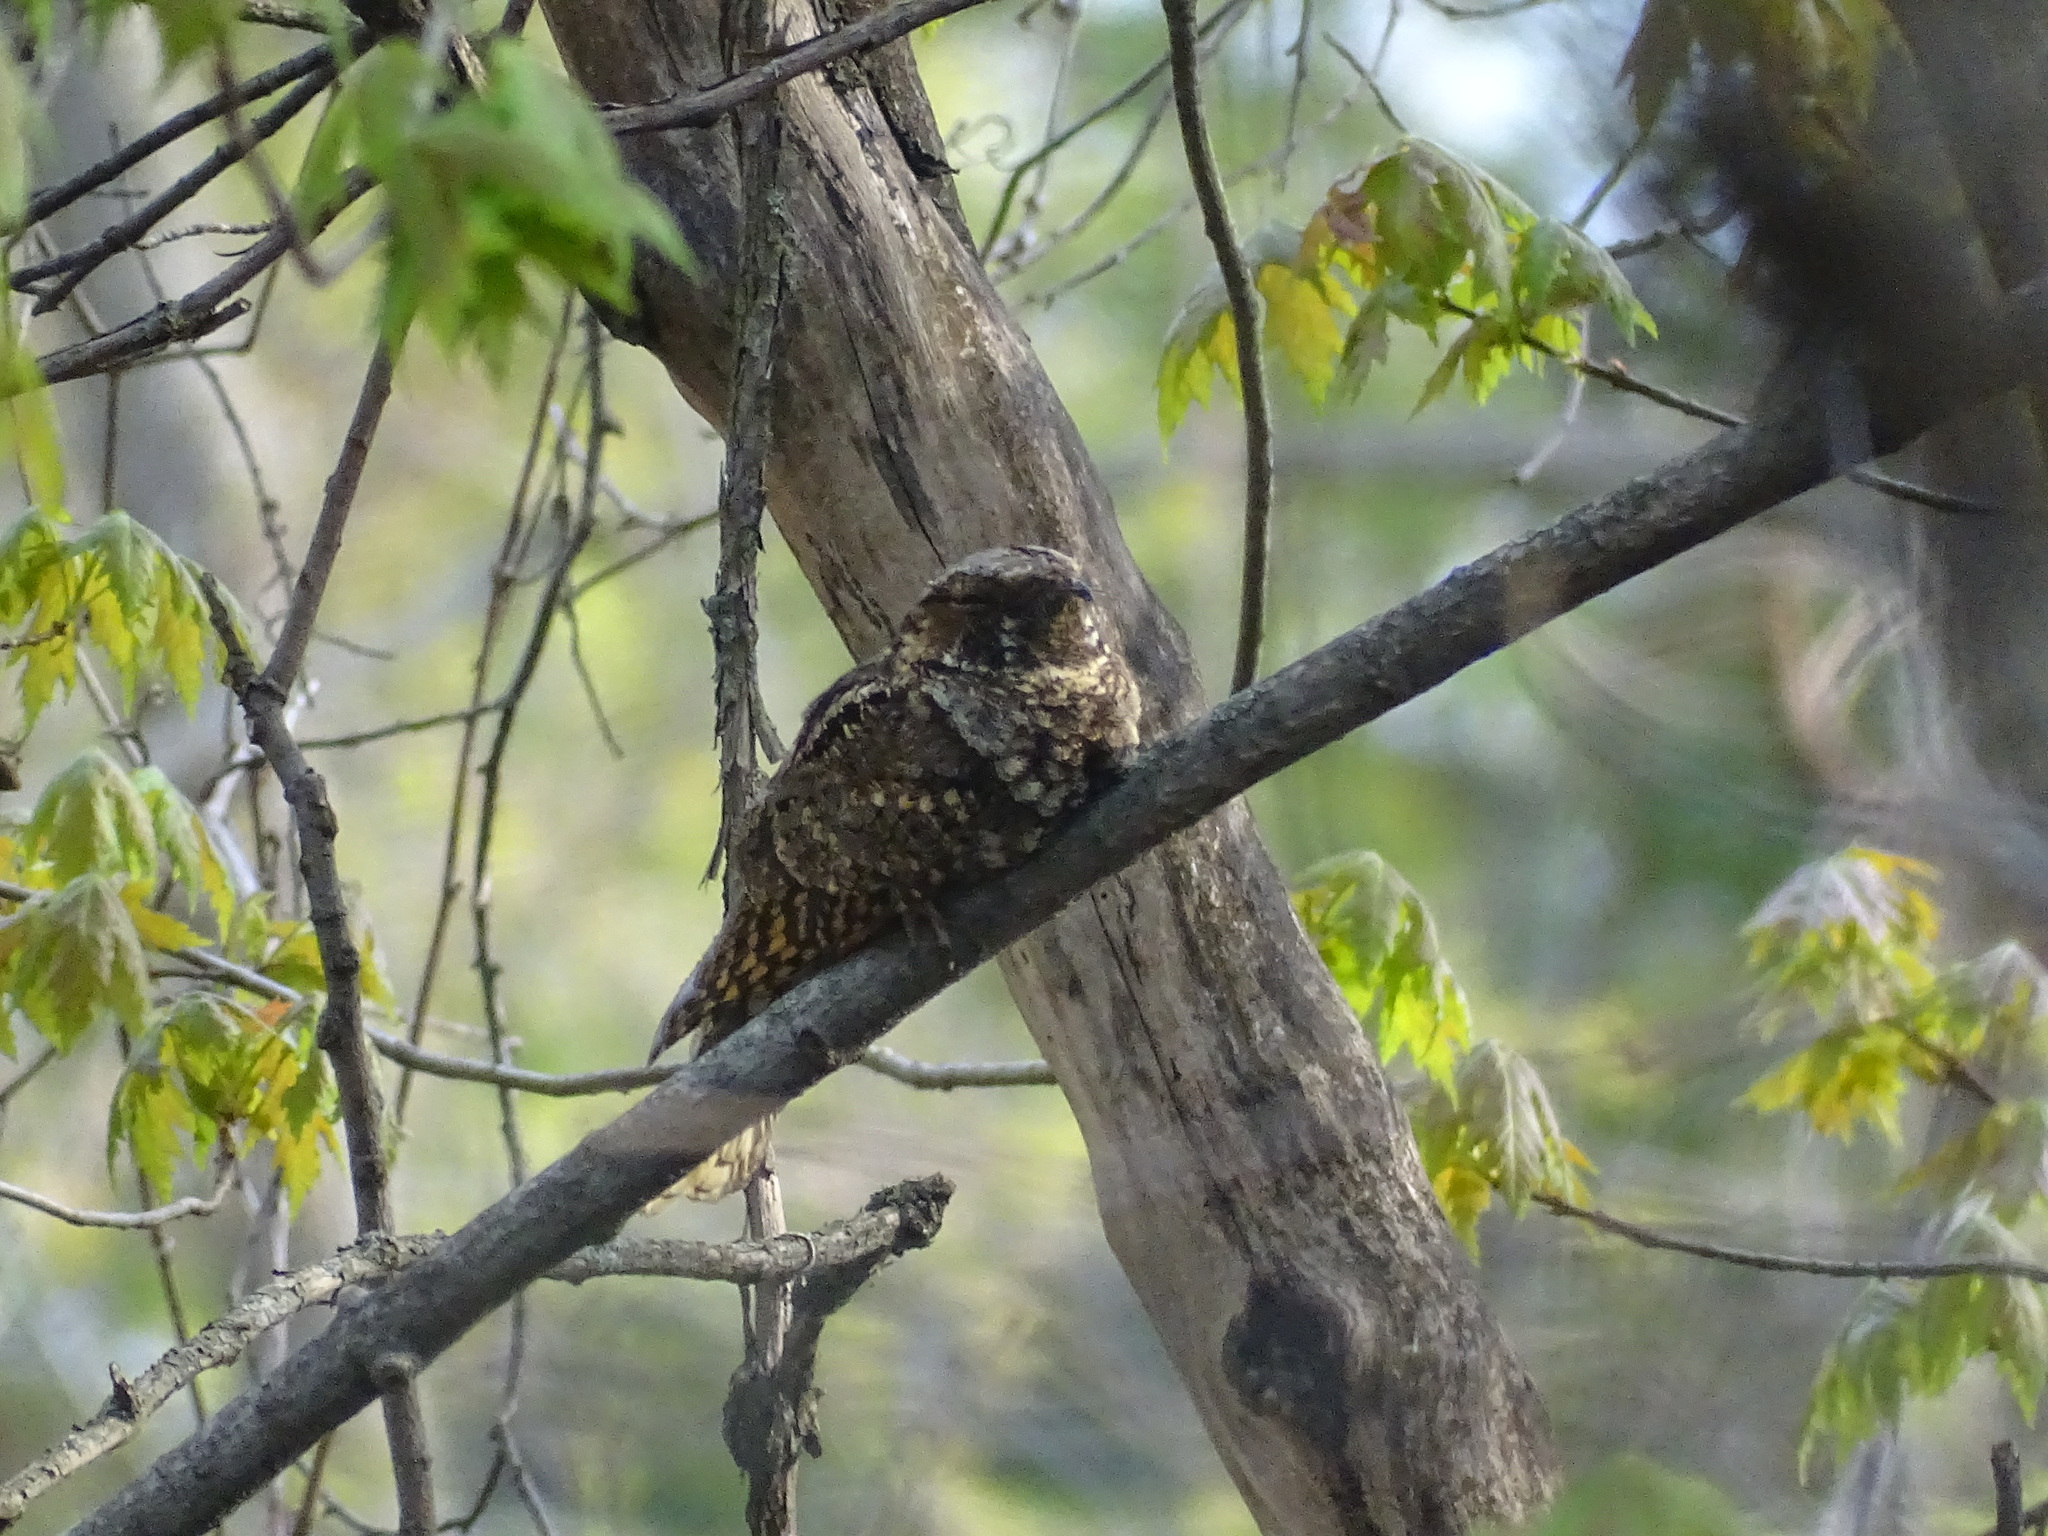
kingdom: Animalia
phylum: Chordata
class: Aves
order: Caprimulgiformes
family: Caprimulgidae
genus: Antrostomus
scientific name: Antrostomus vociferus
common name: Eastern whip-poor-will
